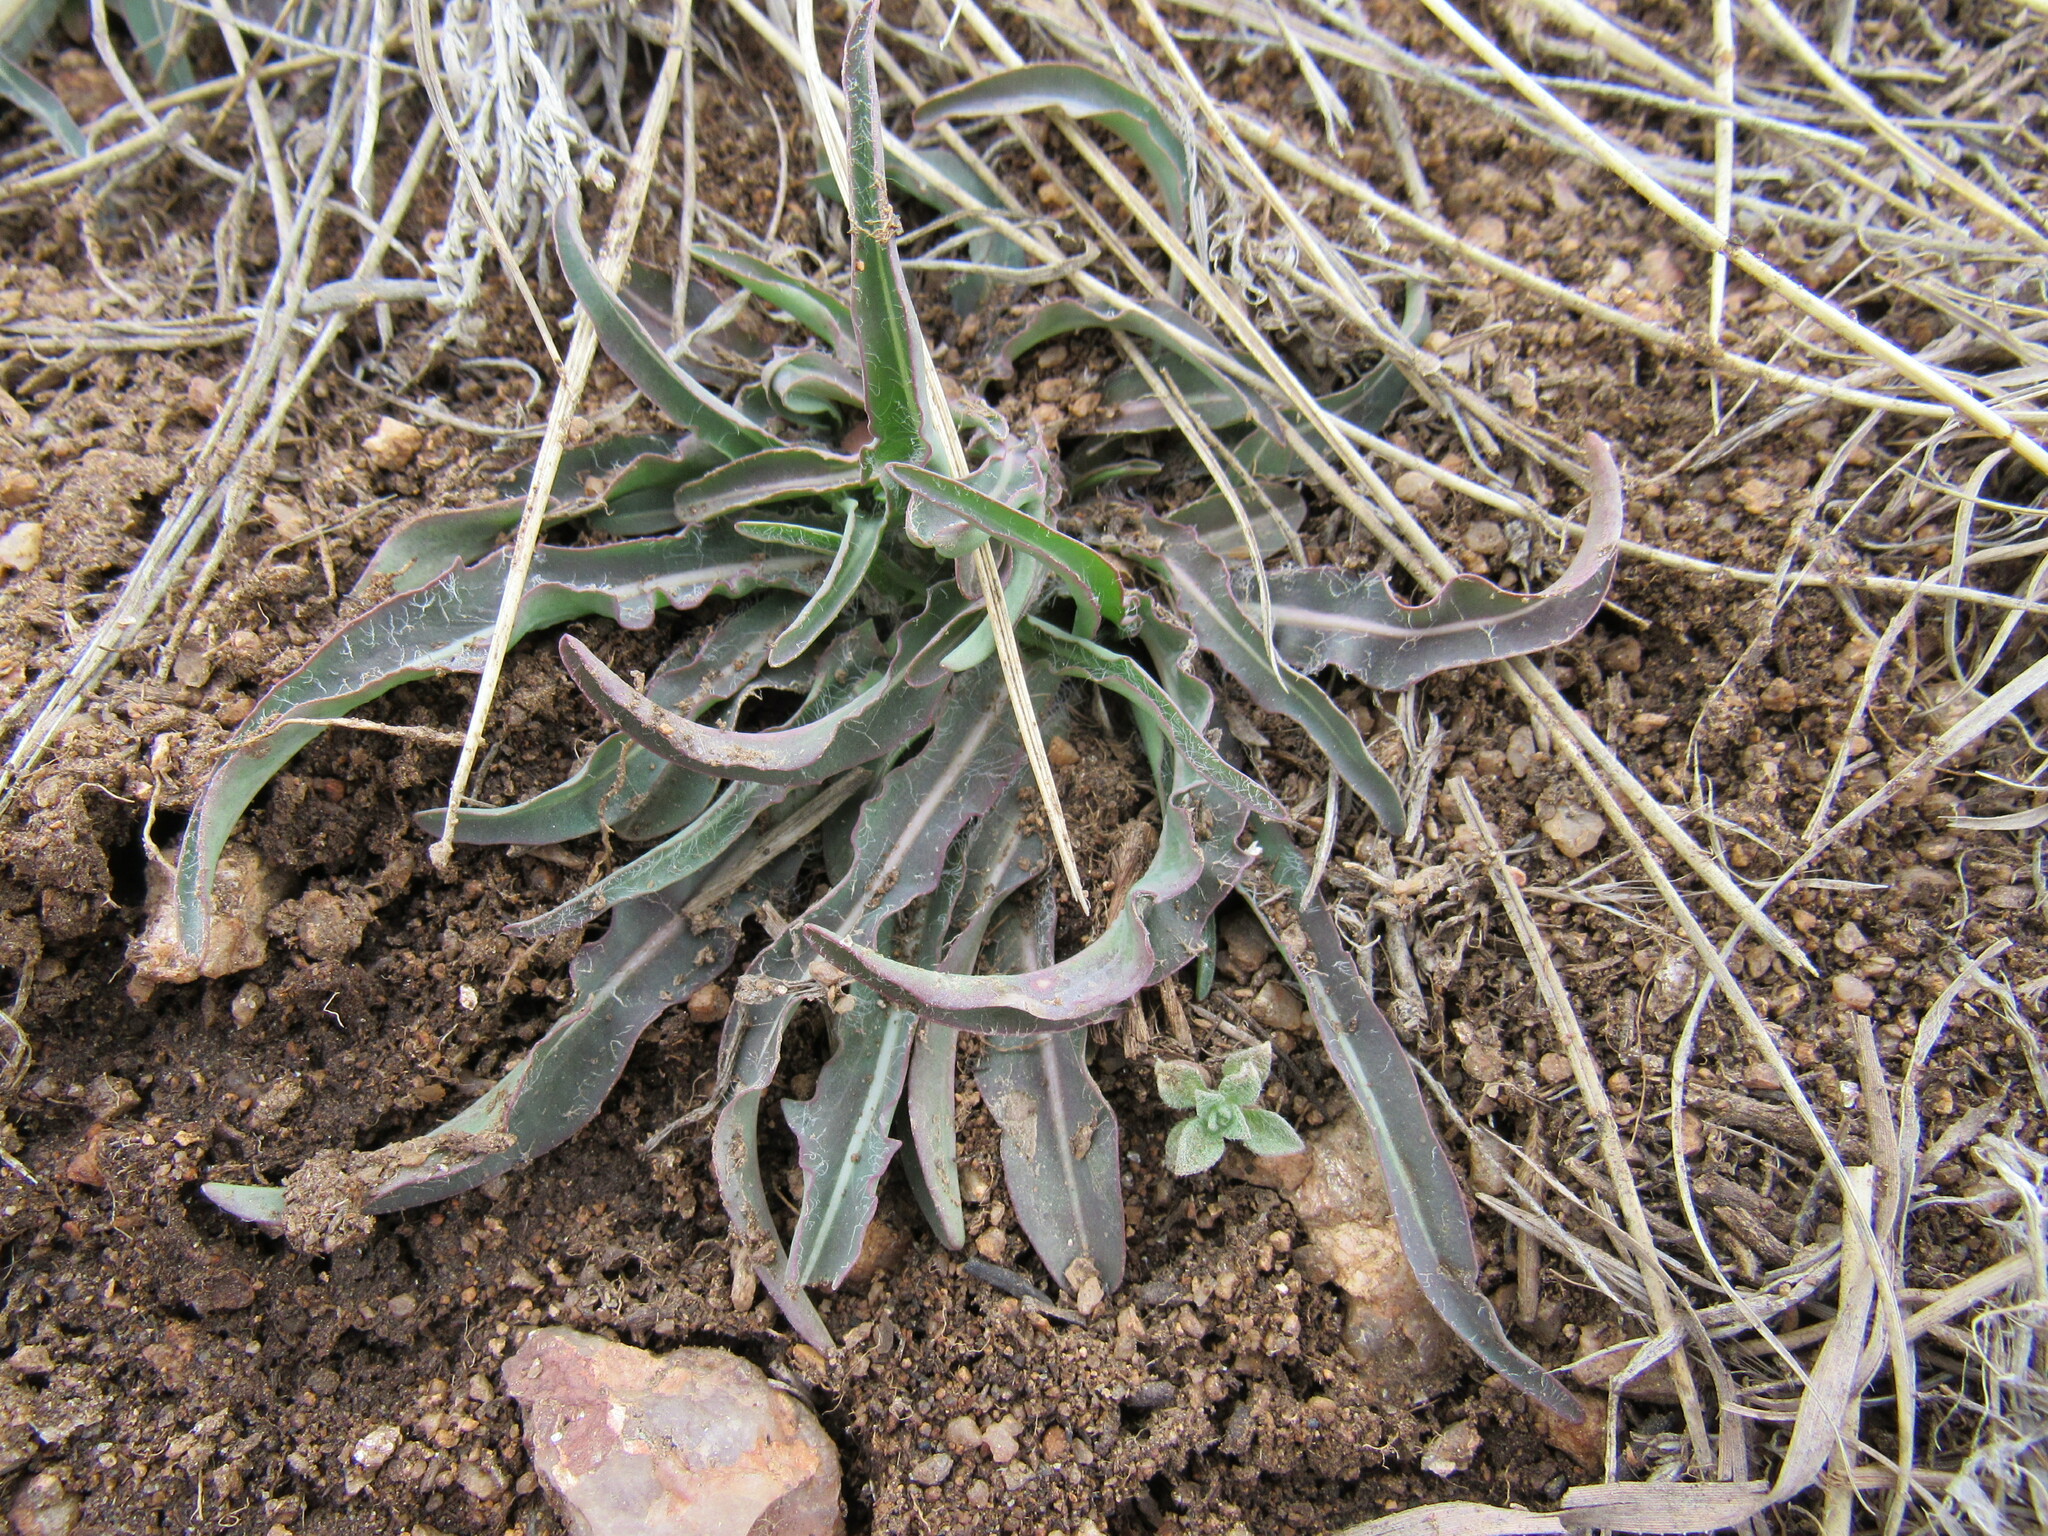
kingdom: Plantae
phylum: Tracheophyta
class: Magnoliopsida
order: Asterales
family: Asteraceae
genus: Microseris
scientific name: Microseris cuspidata
